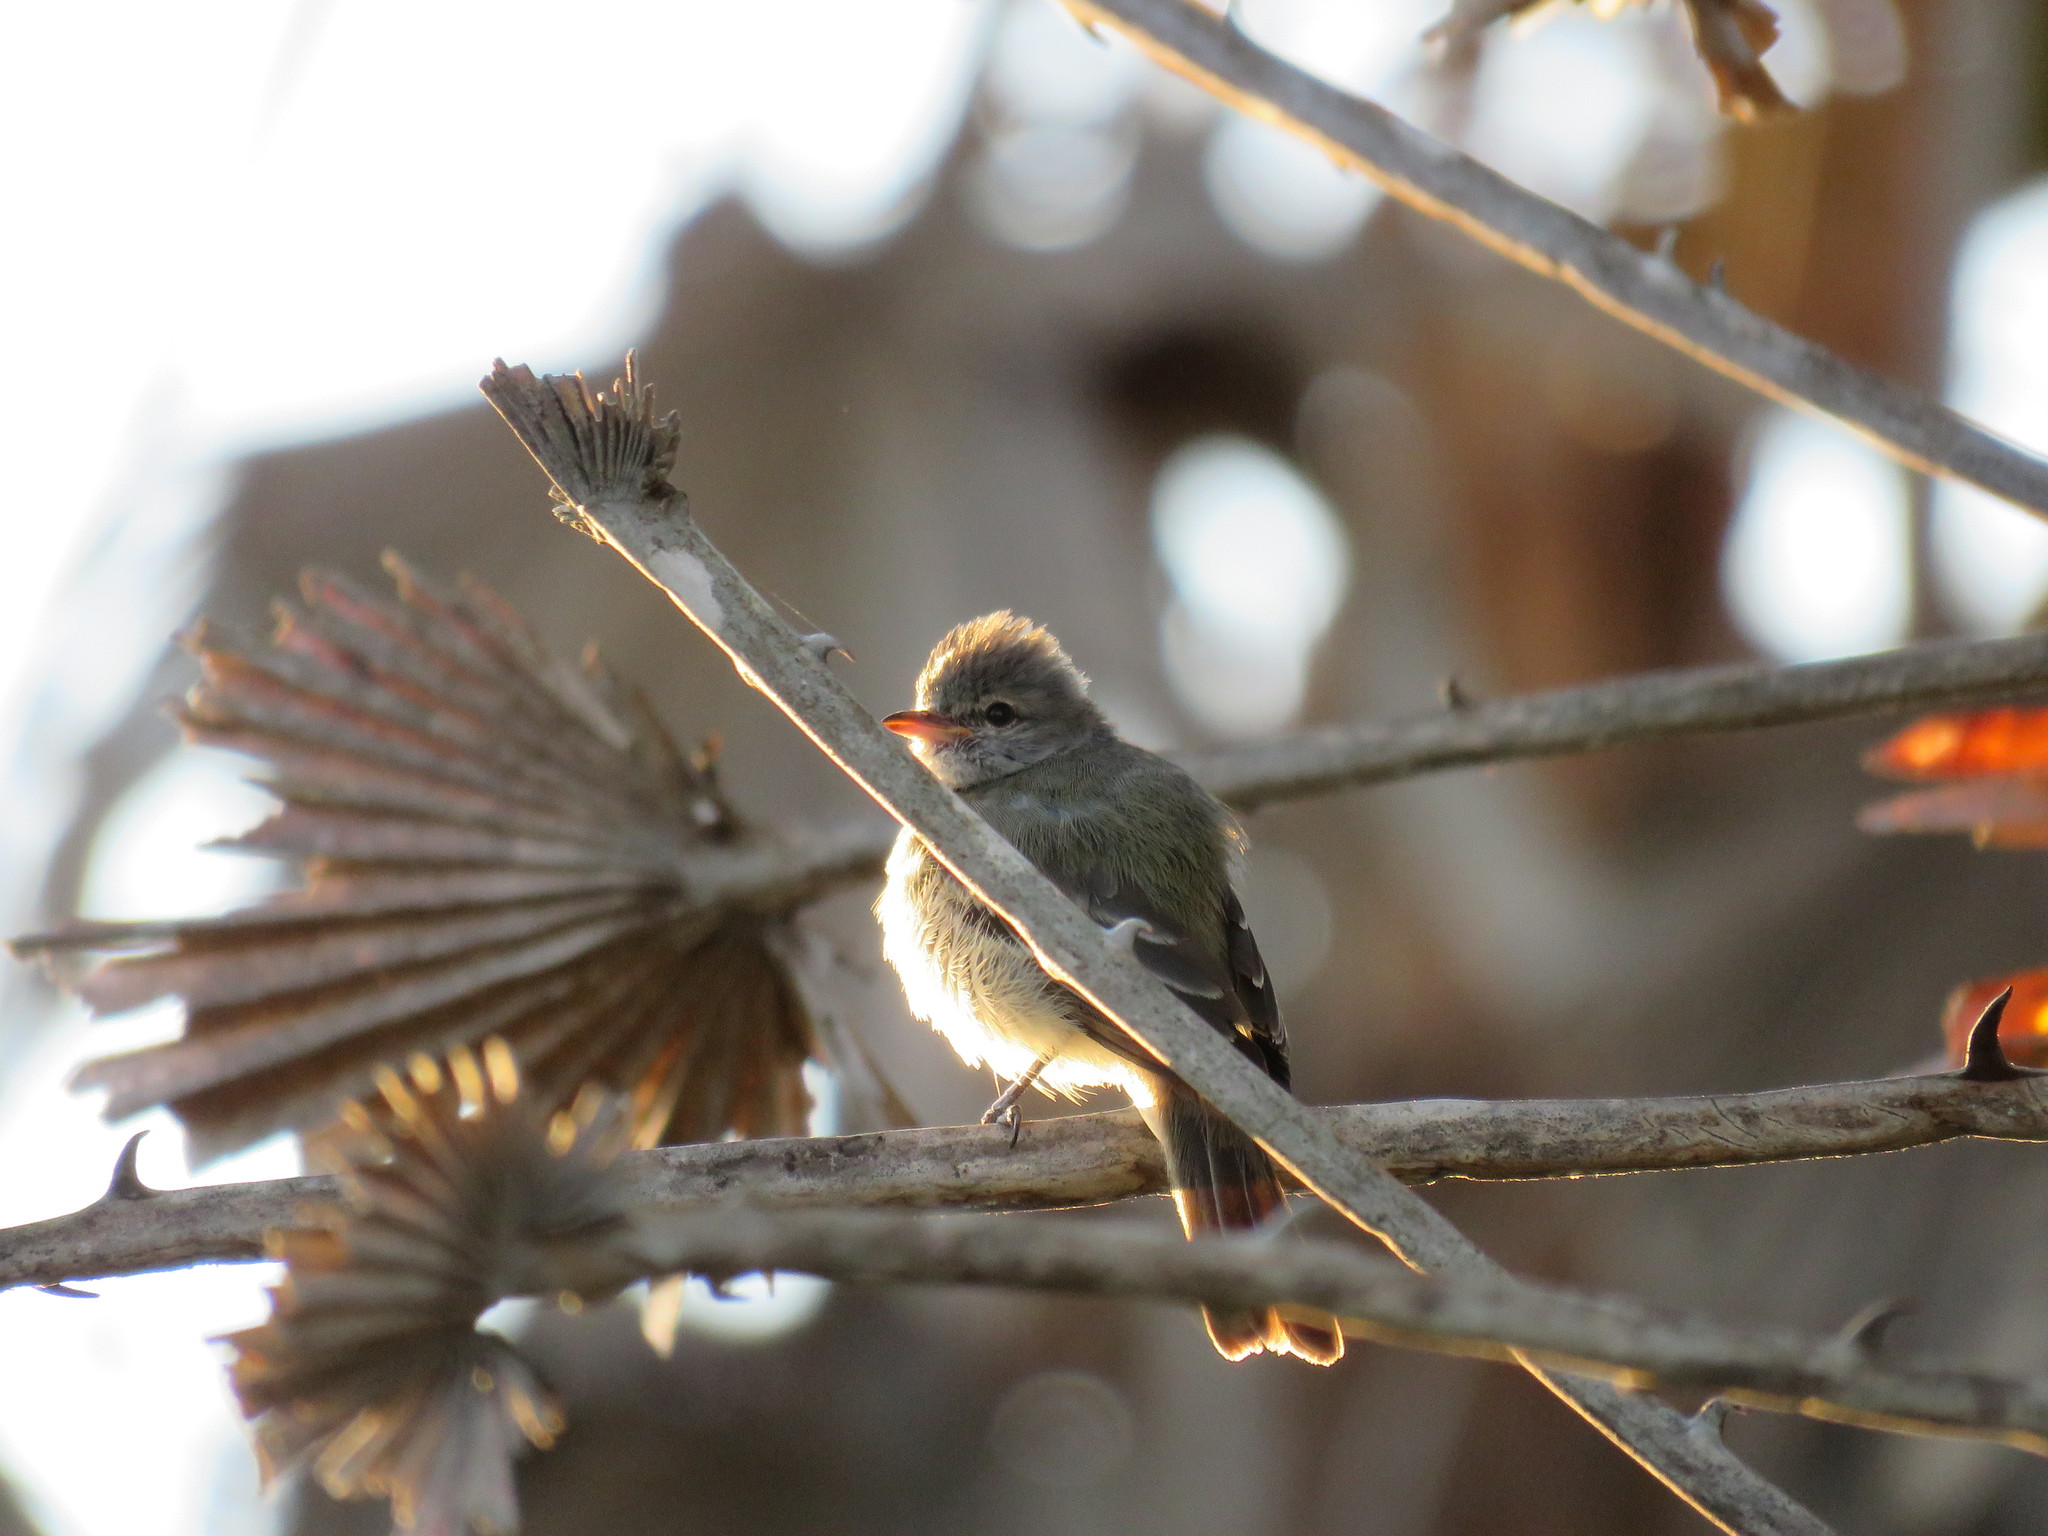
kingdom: Animalia
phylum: Chordata
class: Aves
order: Passeriformes
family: Tyrannidae
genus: Camptostoma
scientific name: Camptostoma obsoletum
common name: Southern beardless-tyrannulet
